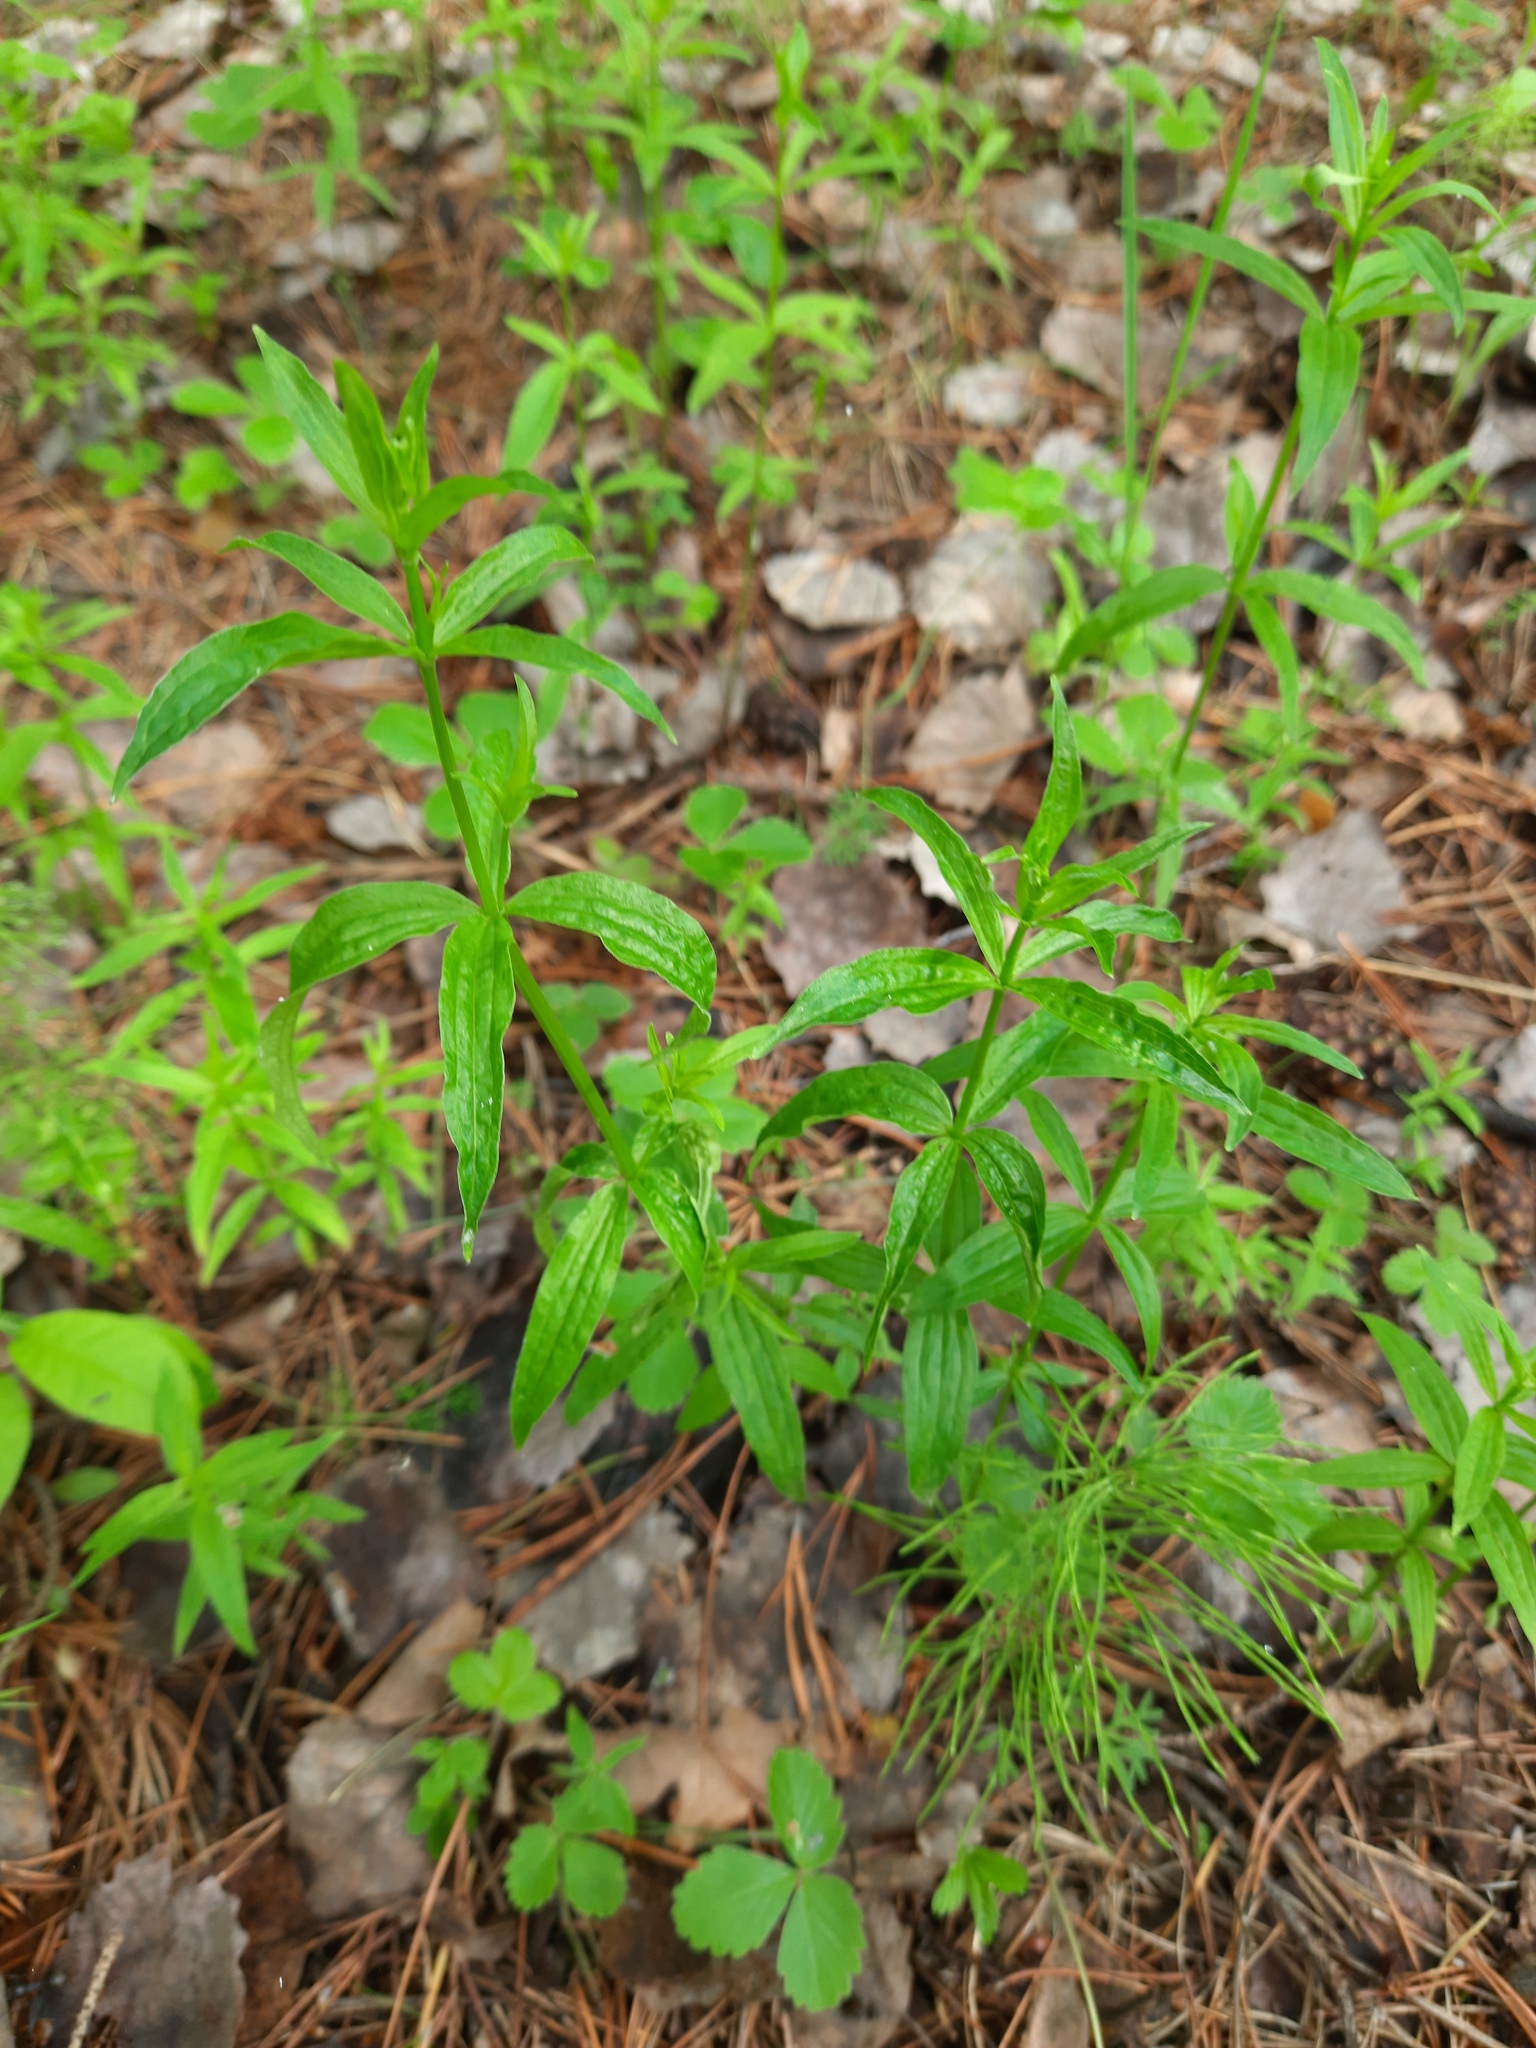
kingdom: Plantae
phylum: Tracheophyta
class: Magnoliopsida
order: Gentianales
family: Rubiaceae
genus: Galium
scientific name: Galium boreale
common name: Northern bedstraw
